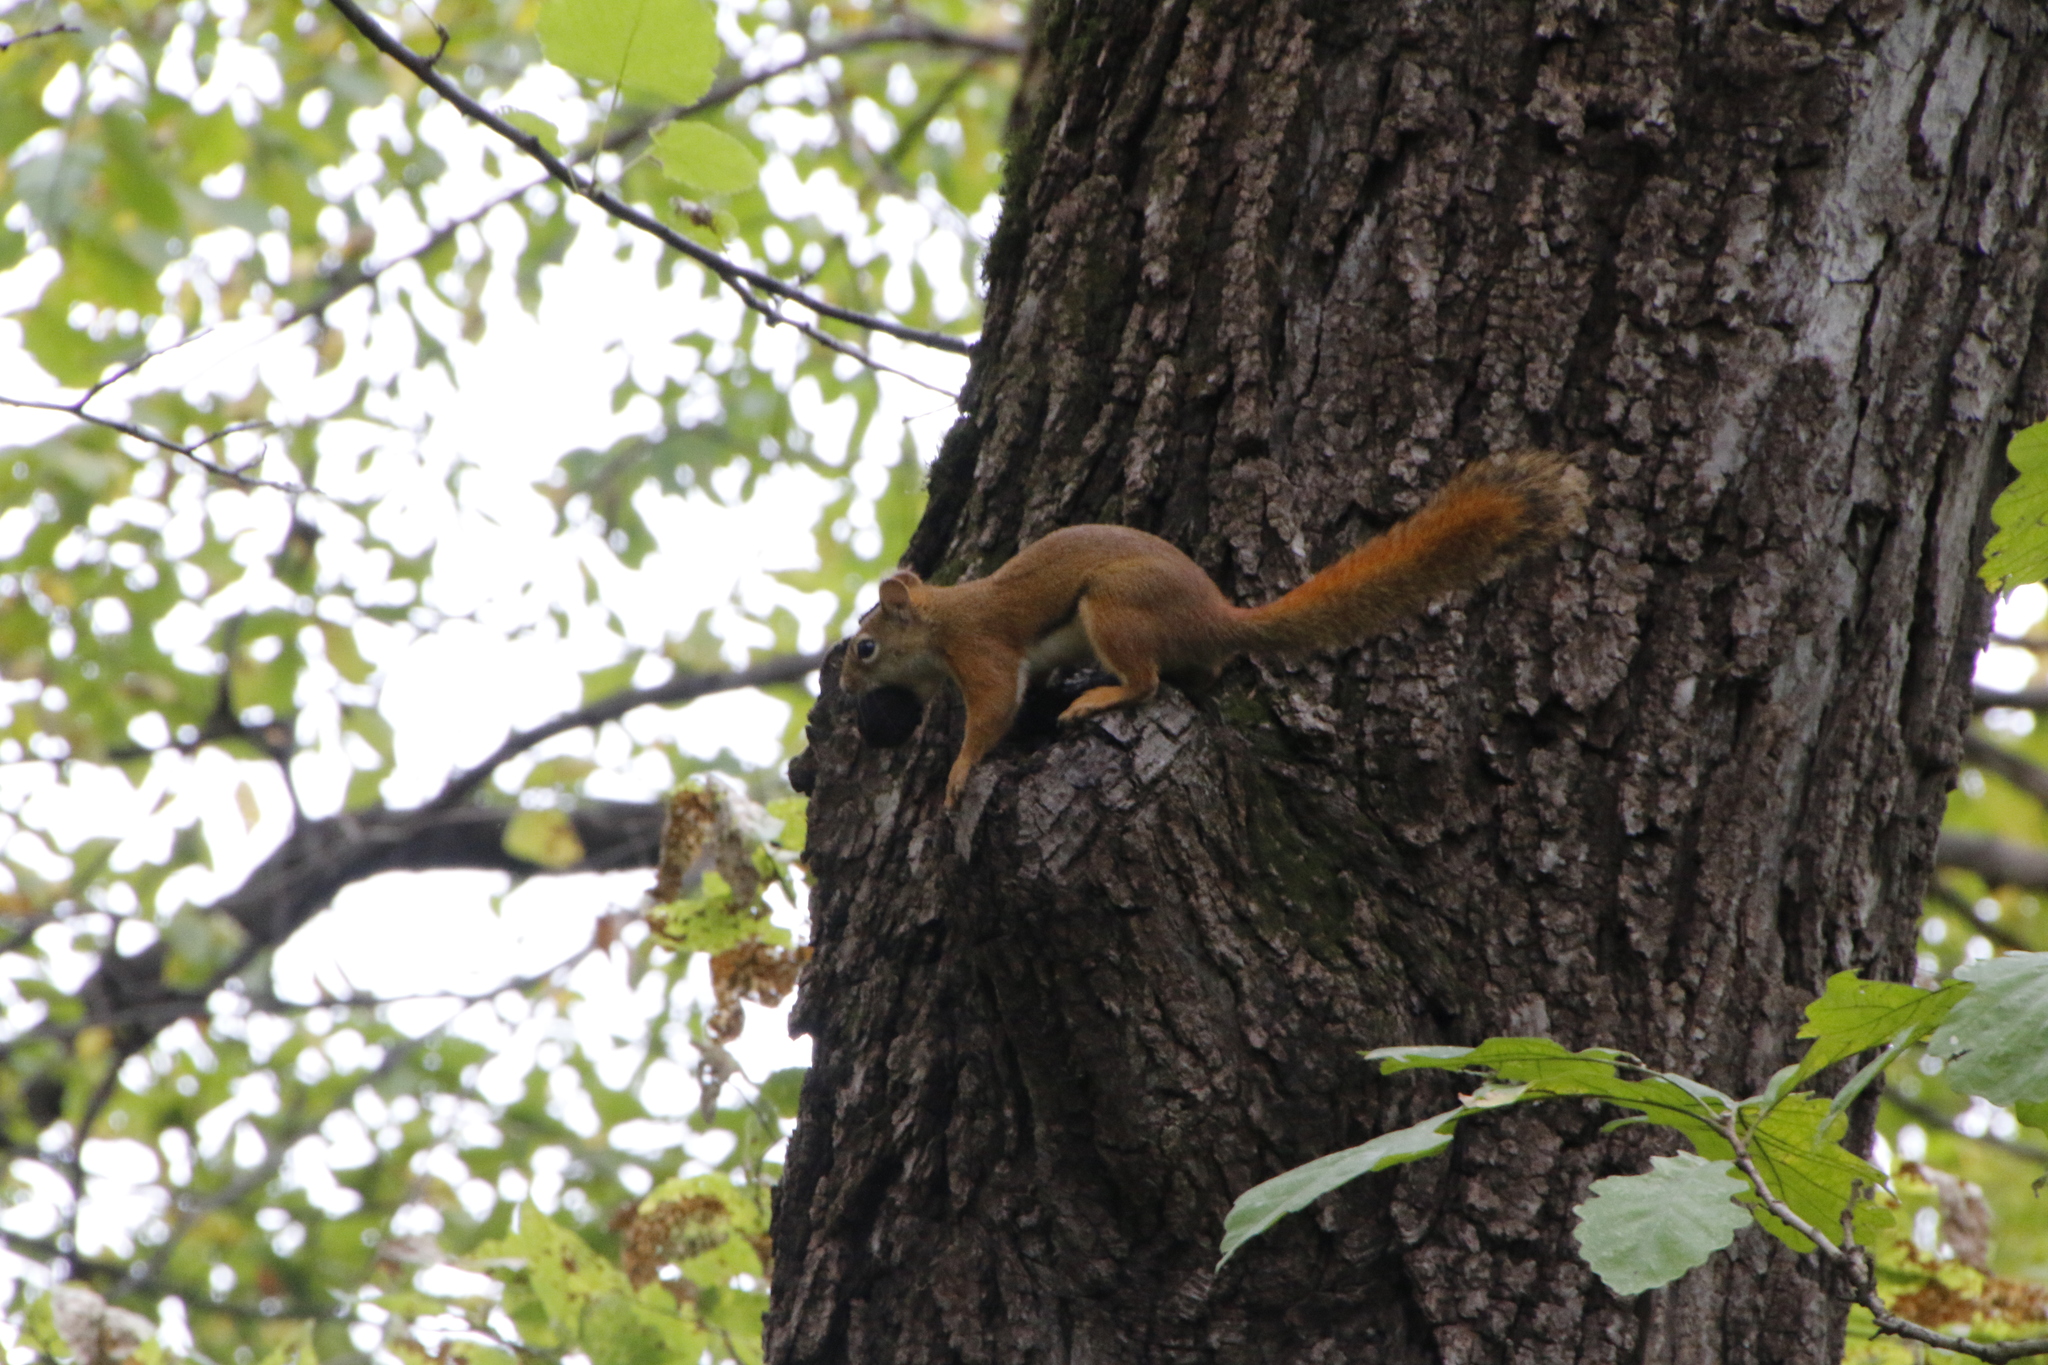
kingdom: Animalia
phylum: Chordata
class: Mammalia
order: Rodentia
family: Sciuridae
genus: Tamiasciurus
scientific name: Tamiasciurus hudsonicus
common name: Red squirrel
